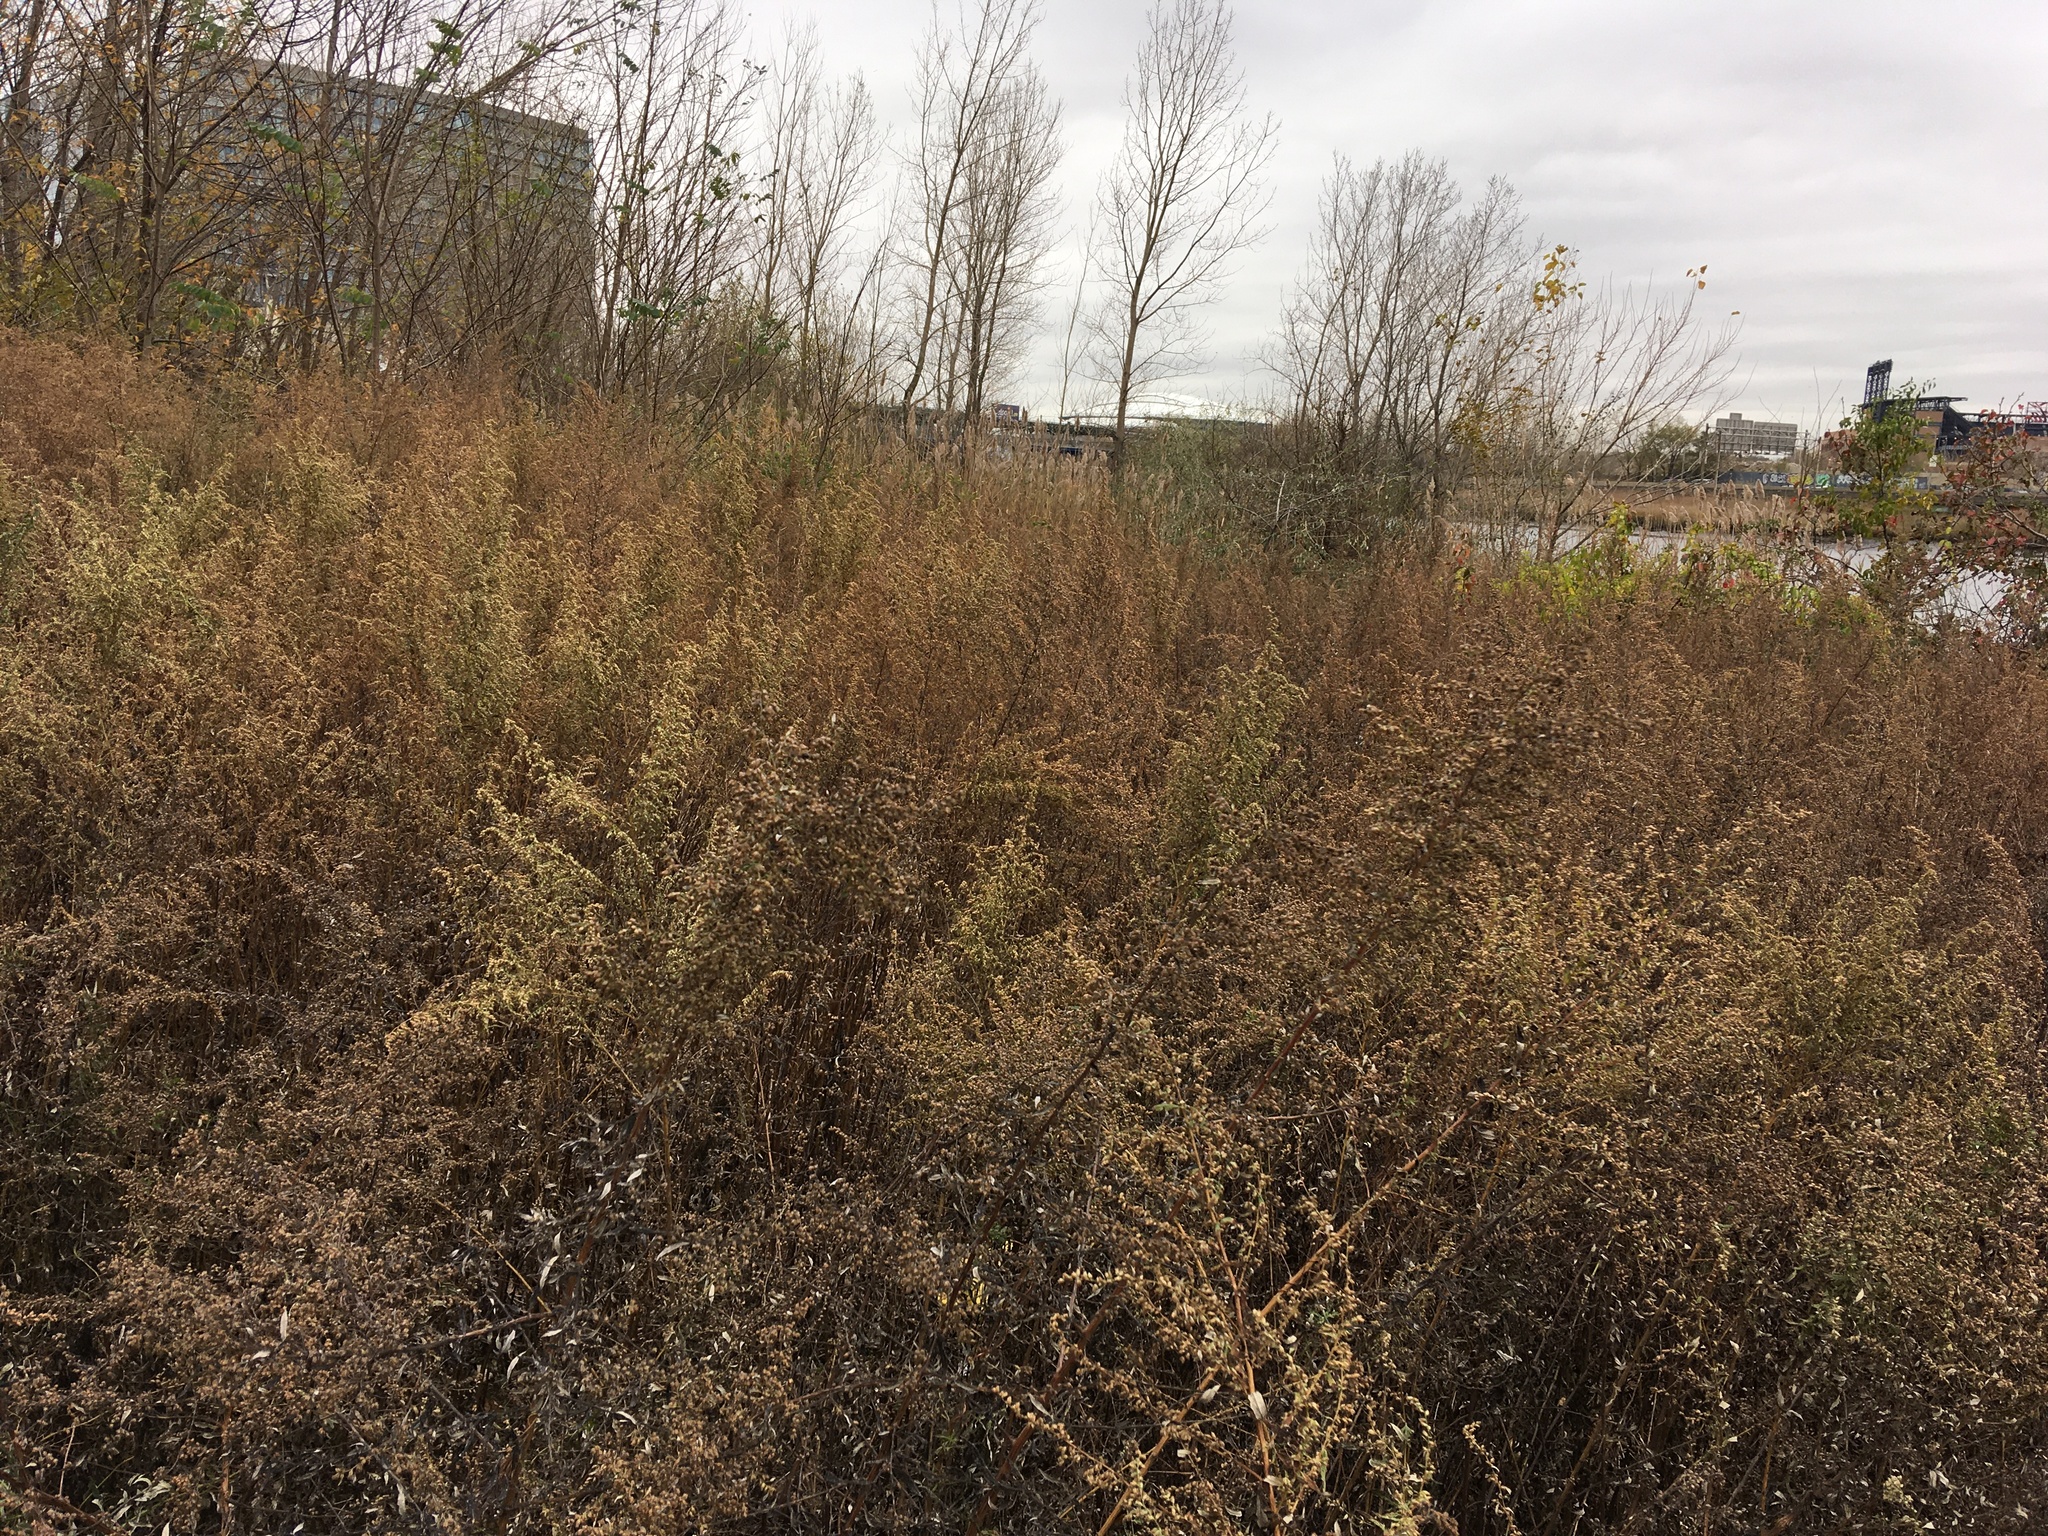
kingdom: Plantae
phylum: Tracheophyta
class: Magnoliopsida
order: Asterales
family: Asteraceae
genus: Artemisia
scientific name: Artemisia vulgaris
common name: Mugwort
